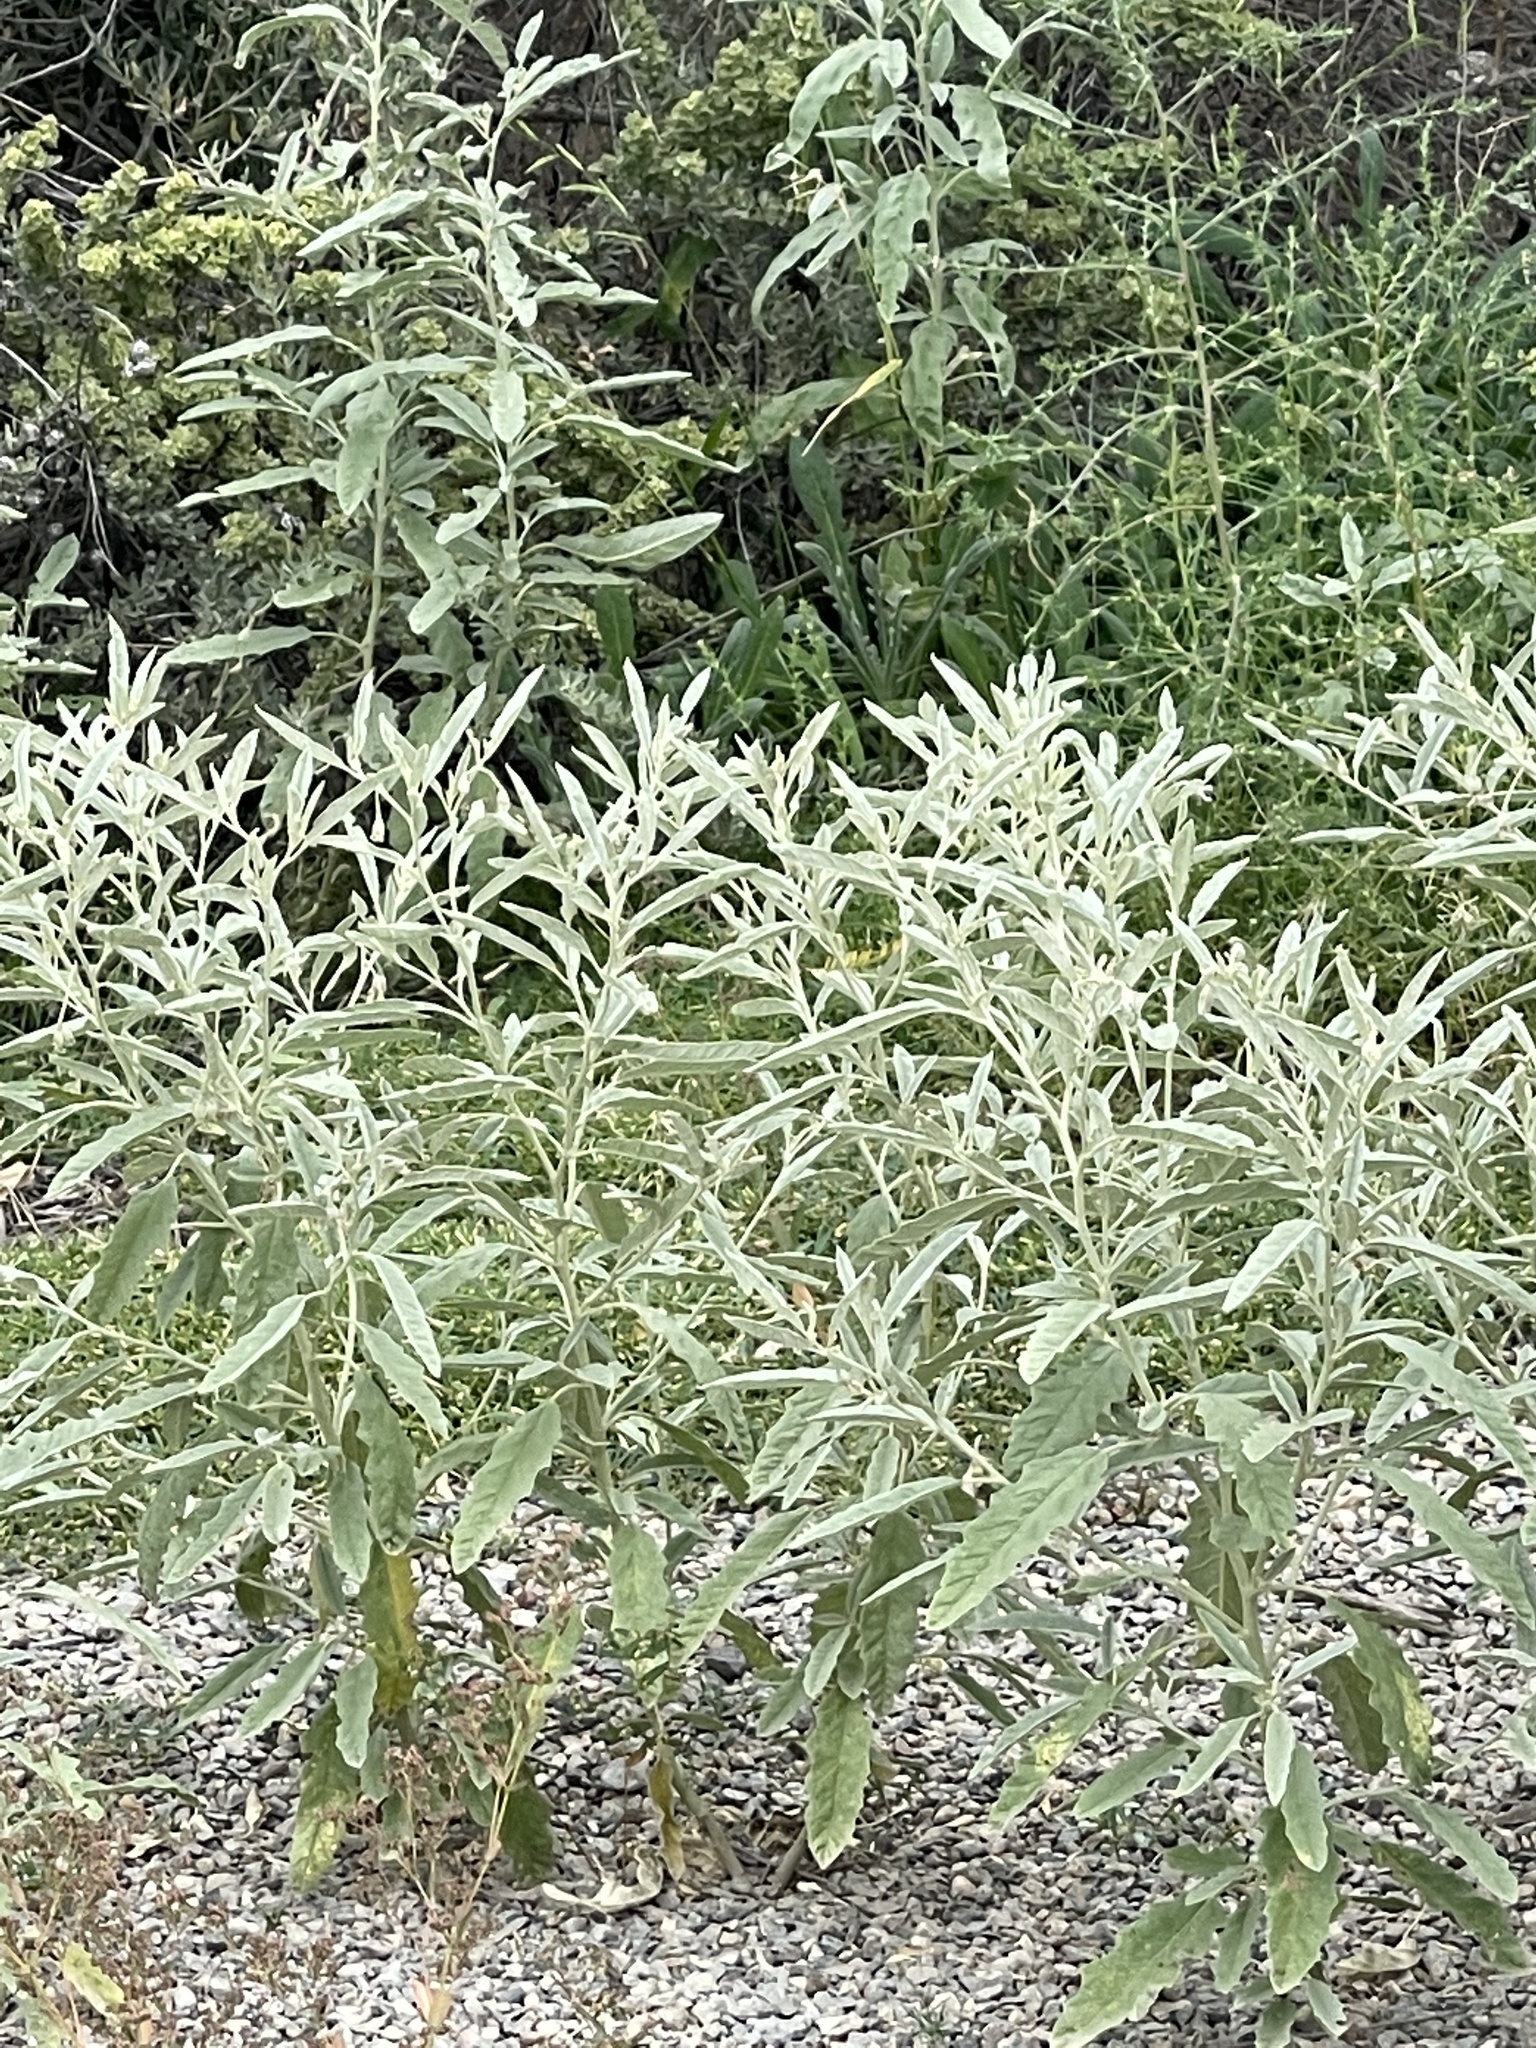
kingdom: Plantae
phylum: Tracheophyta
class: Magnoliopsida
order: Solanales
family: Solanaceae
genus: Solanum
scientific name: Solanum elaeagnifolium
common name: Silverleaf nightshade
